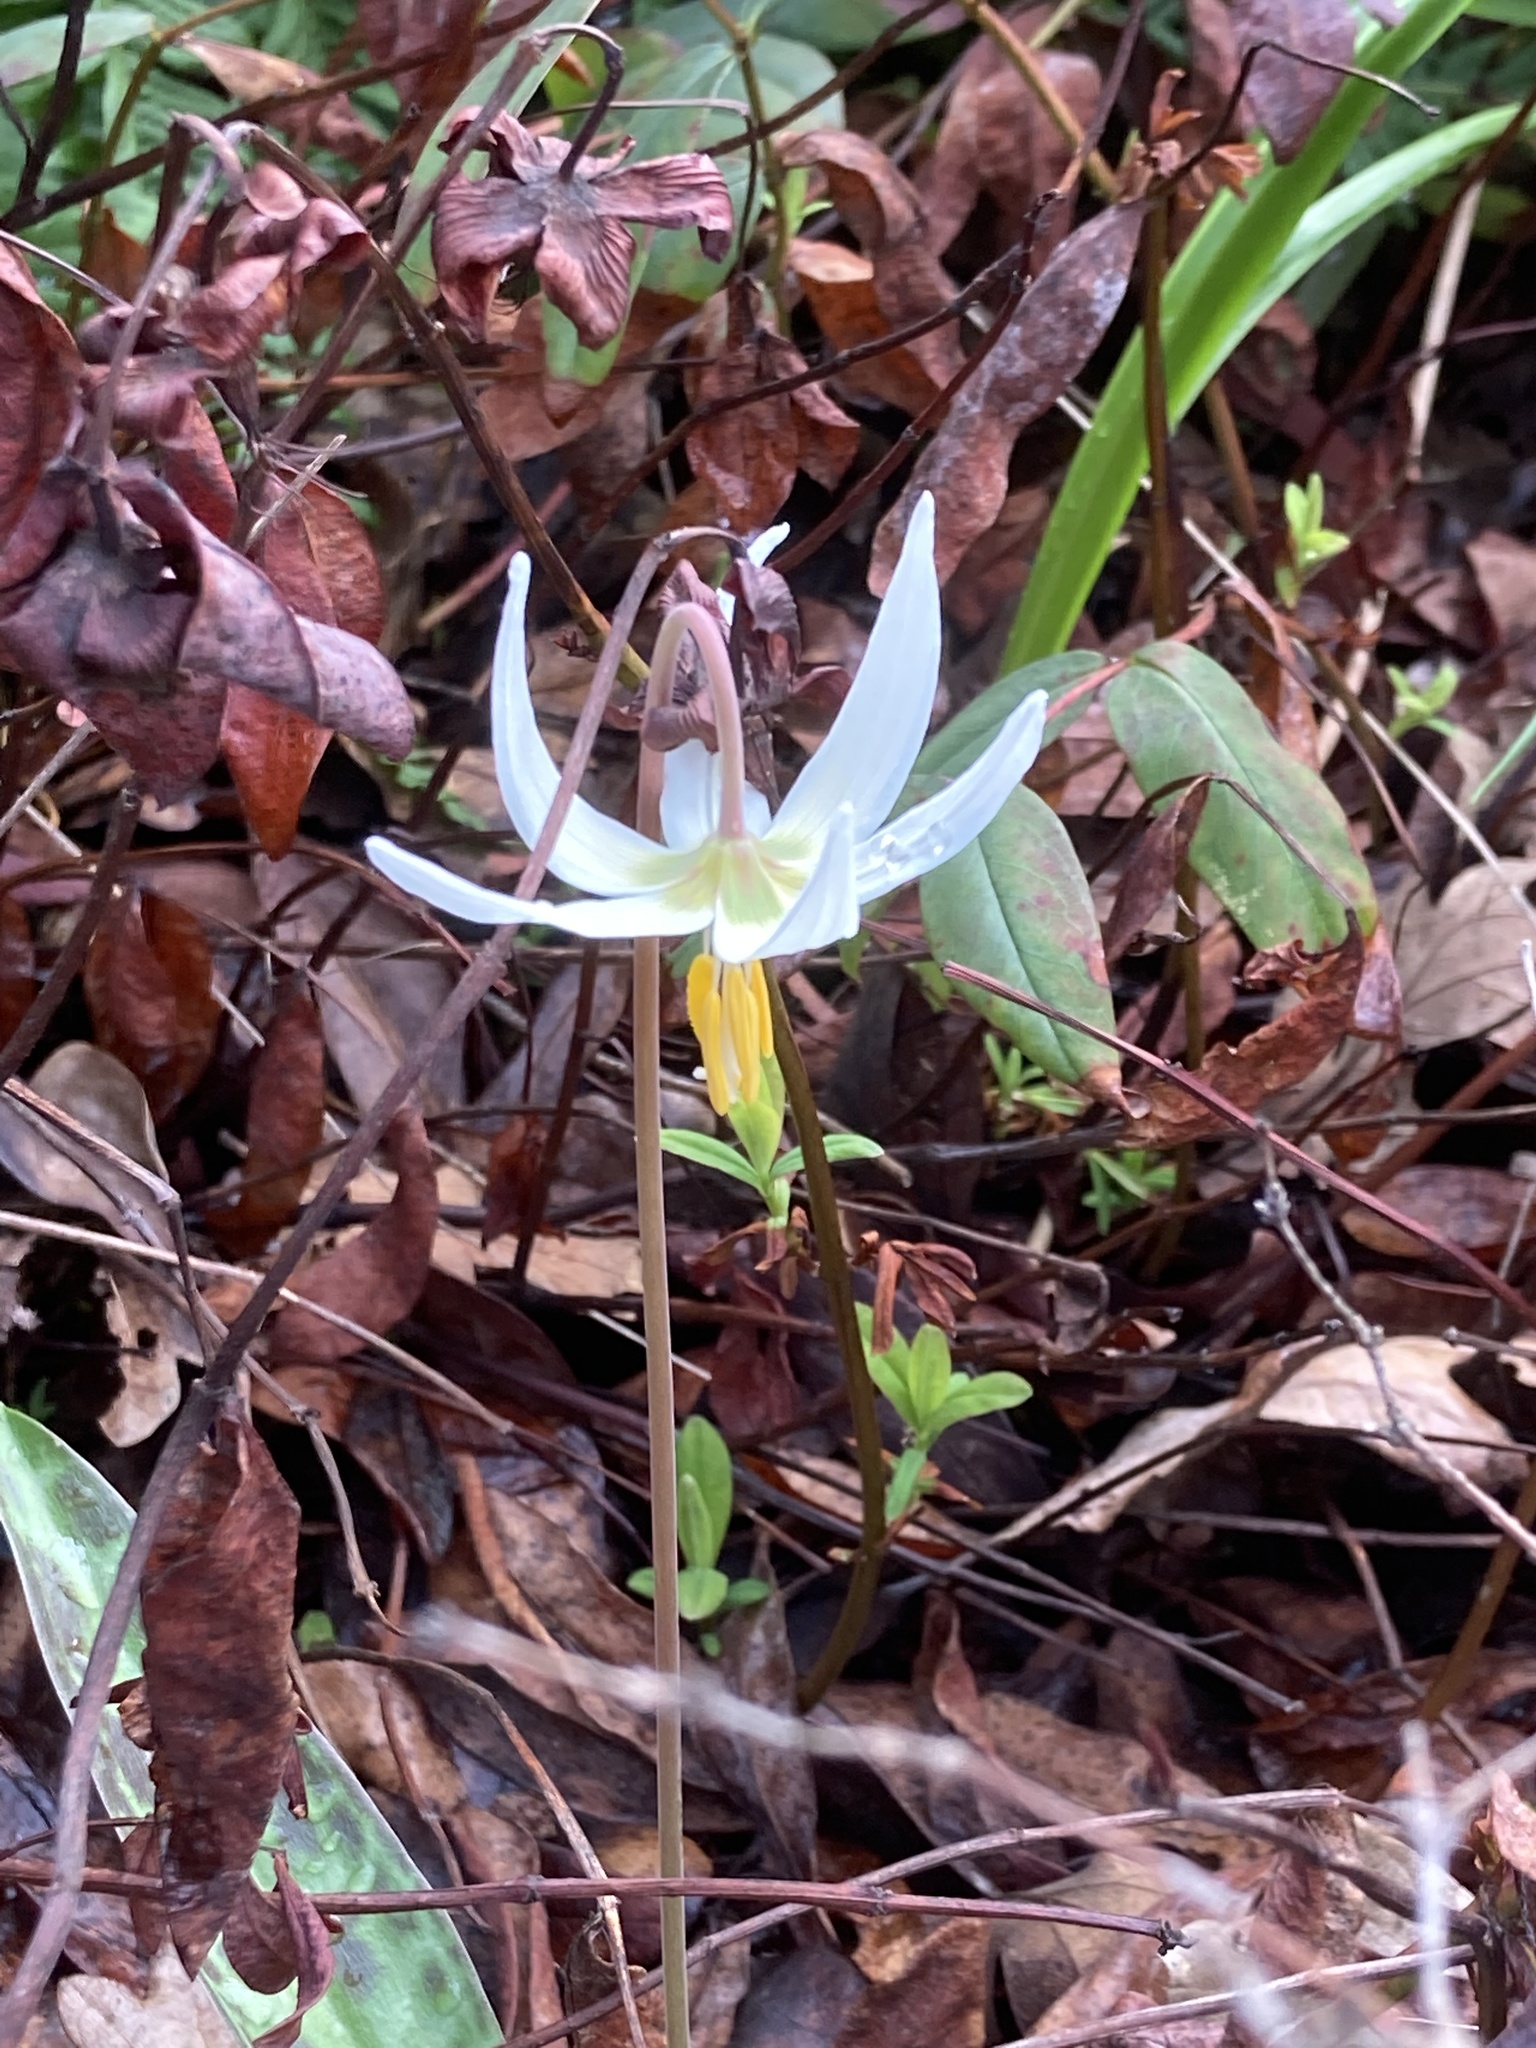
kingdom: Plantae
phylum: Tracheophyta
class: Liliopsida
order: Liliales
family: Liliaceae
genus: Erythronium
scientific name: Erythronium oregonum
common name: Giant adder's-tongue
